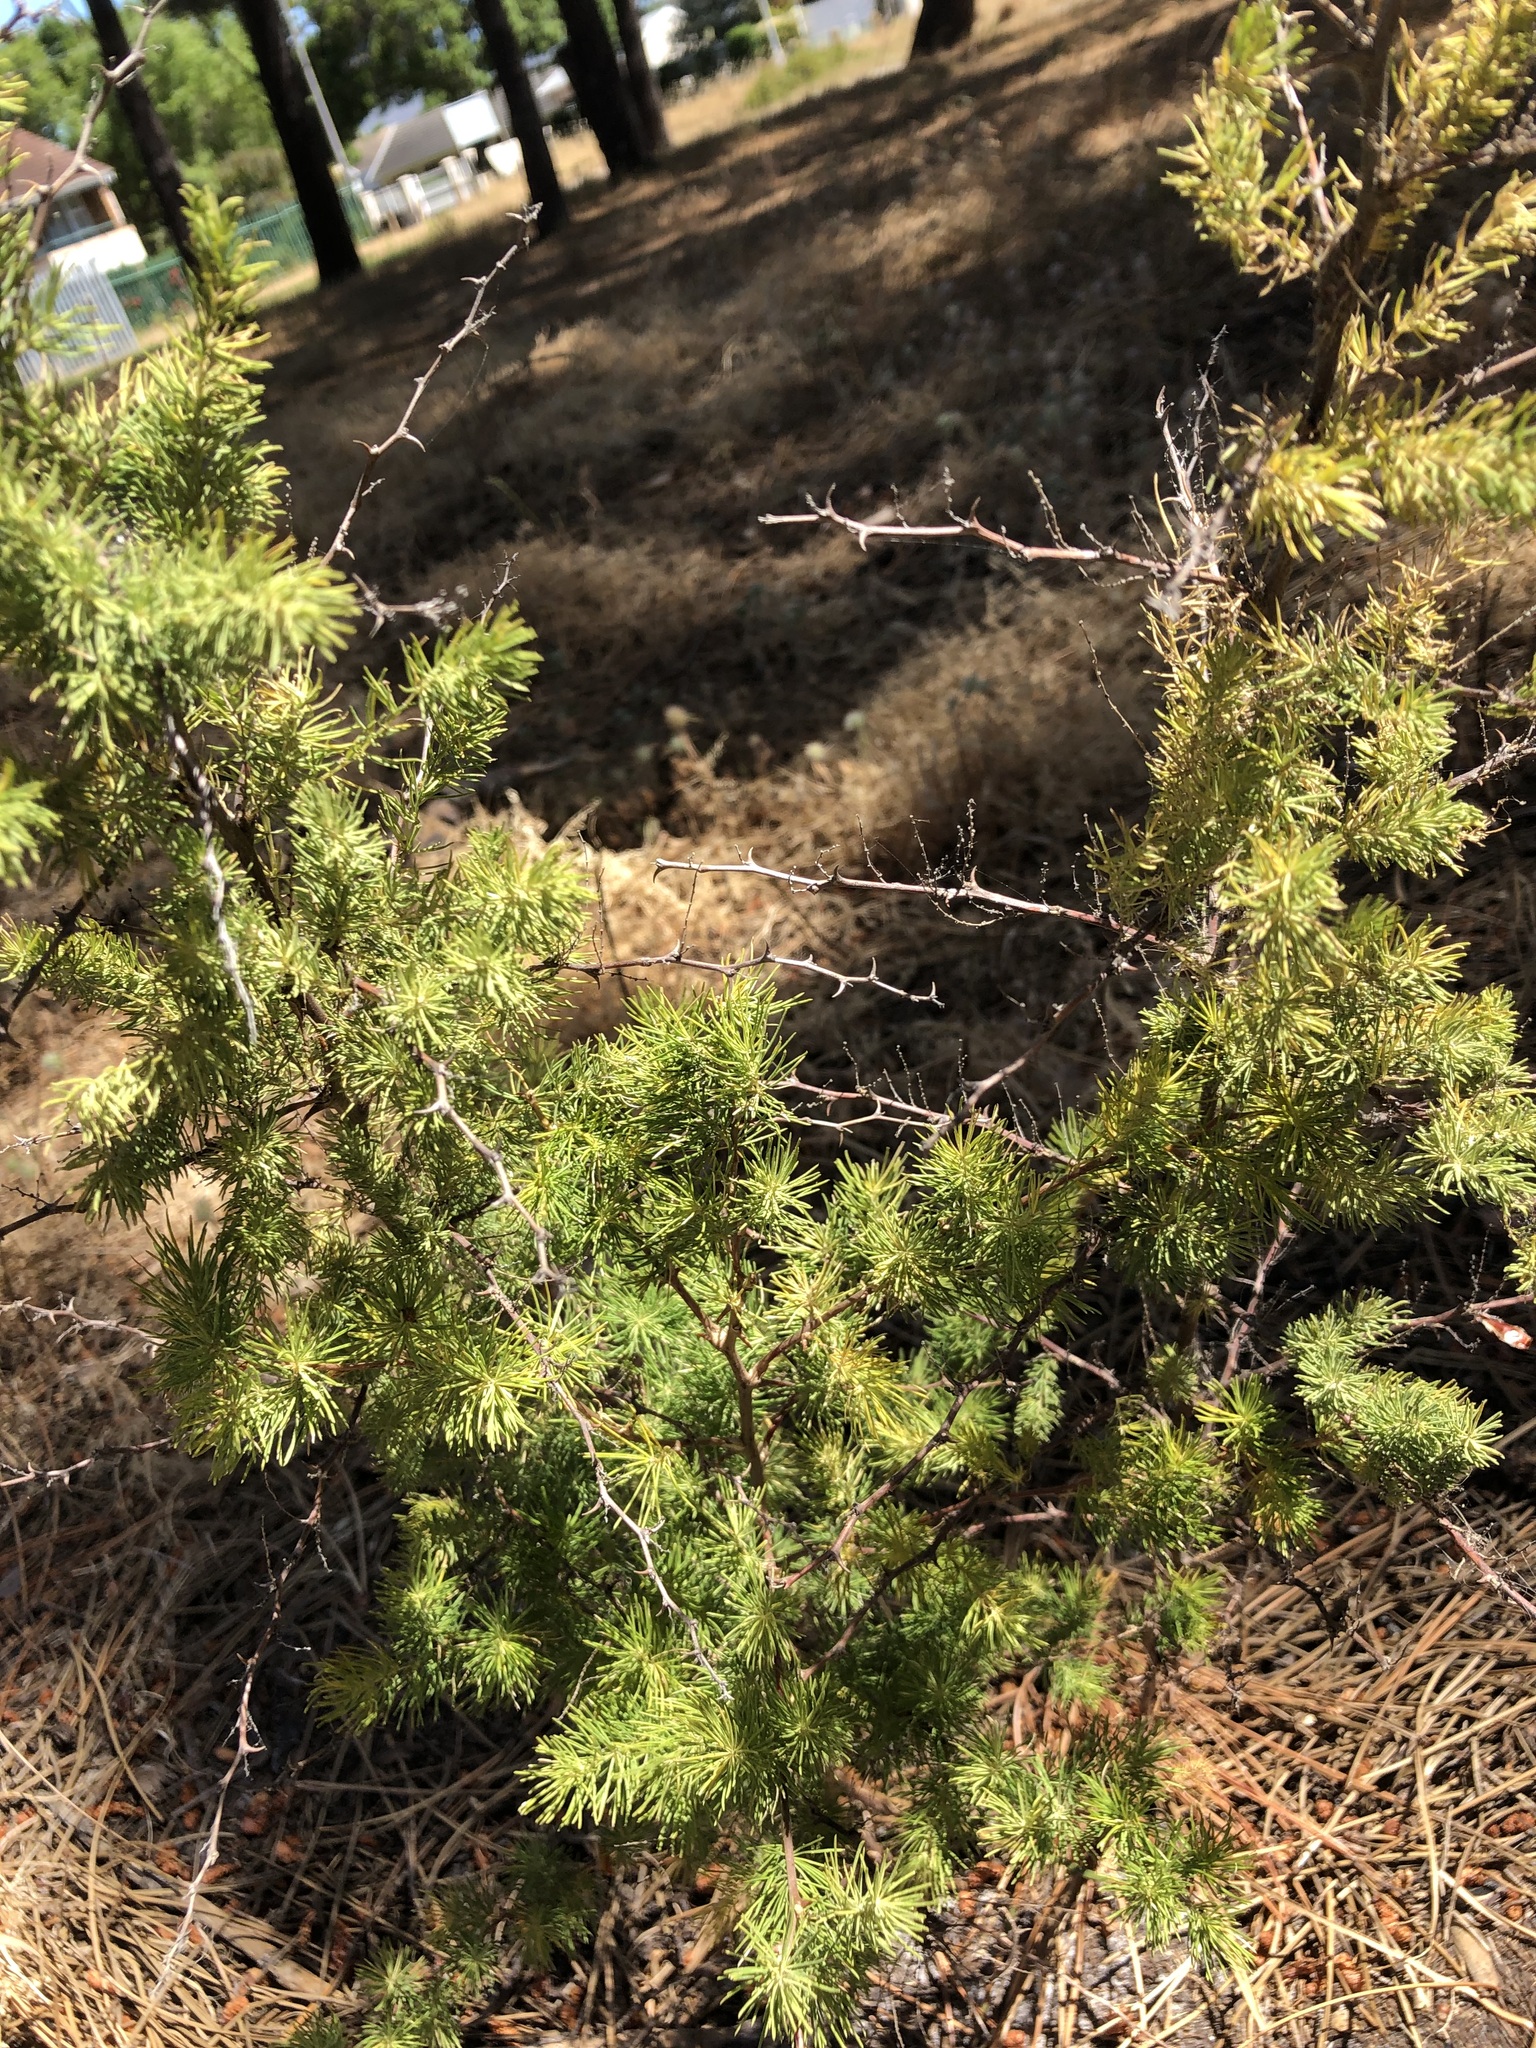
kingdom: Plantae
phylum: Tracheophyta
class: Liliopsida
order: Asparagales
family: Asparagaceae
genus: Asparagus
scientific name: Asparagus rubicundus
